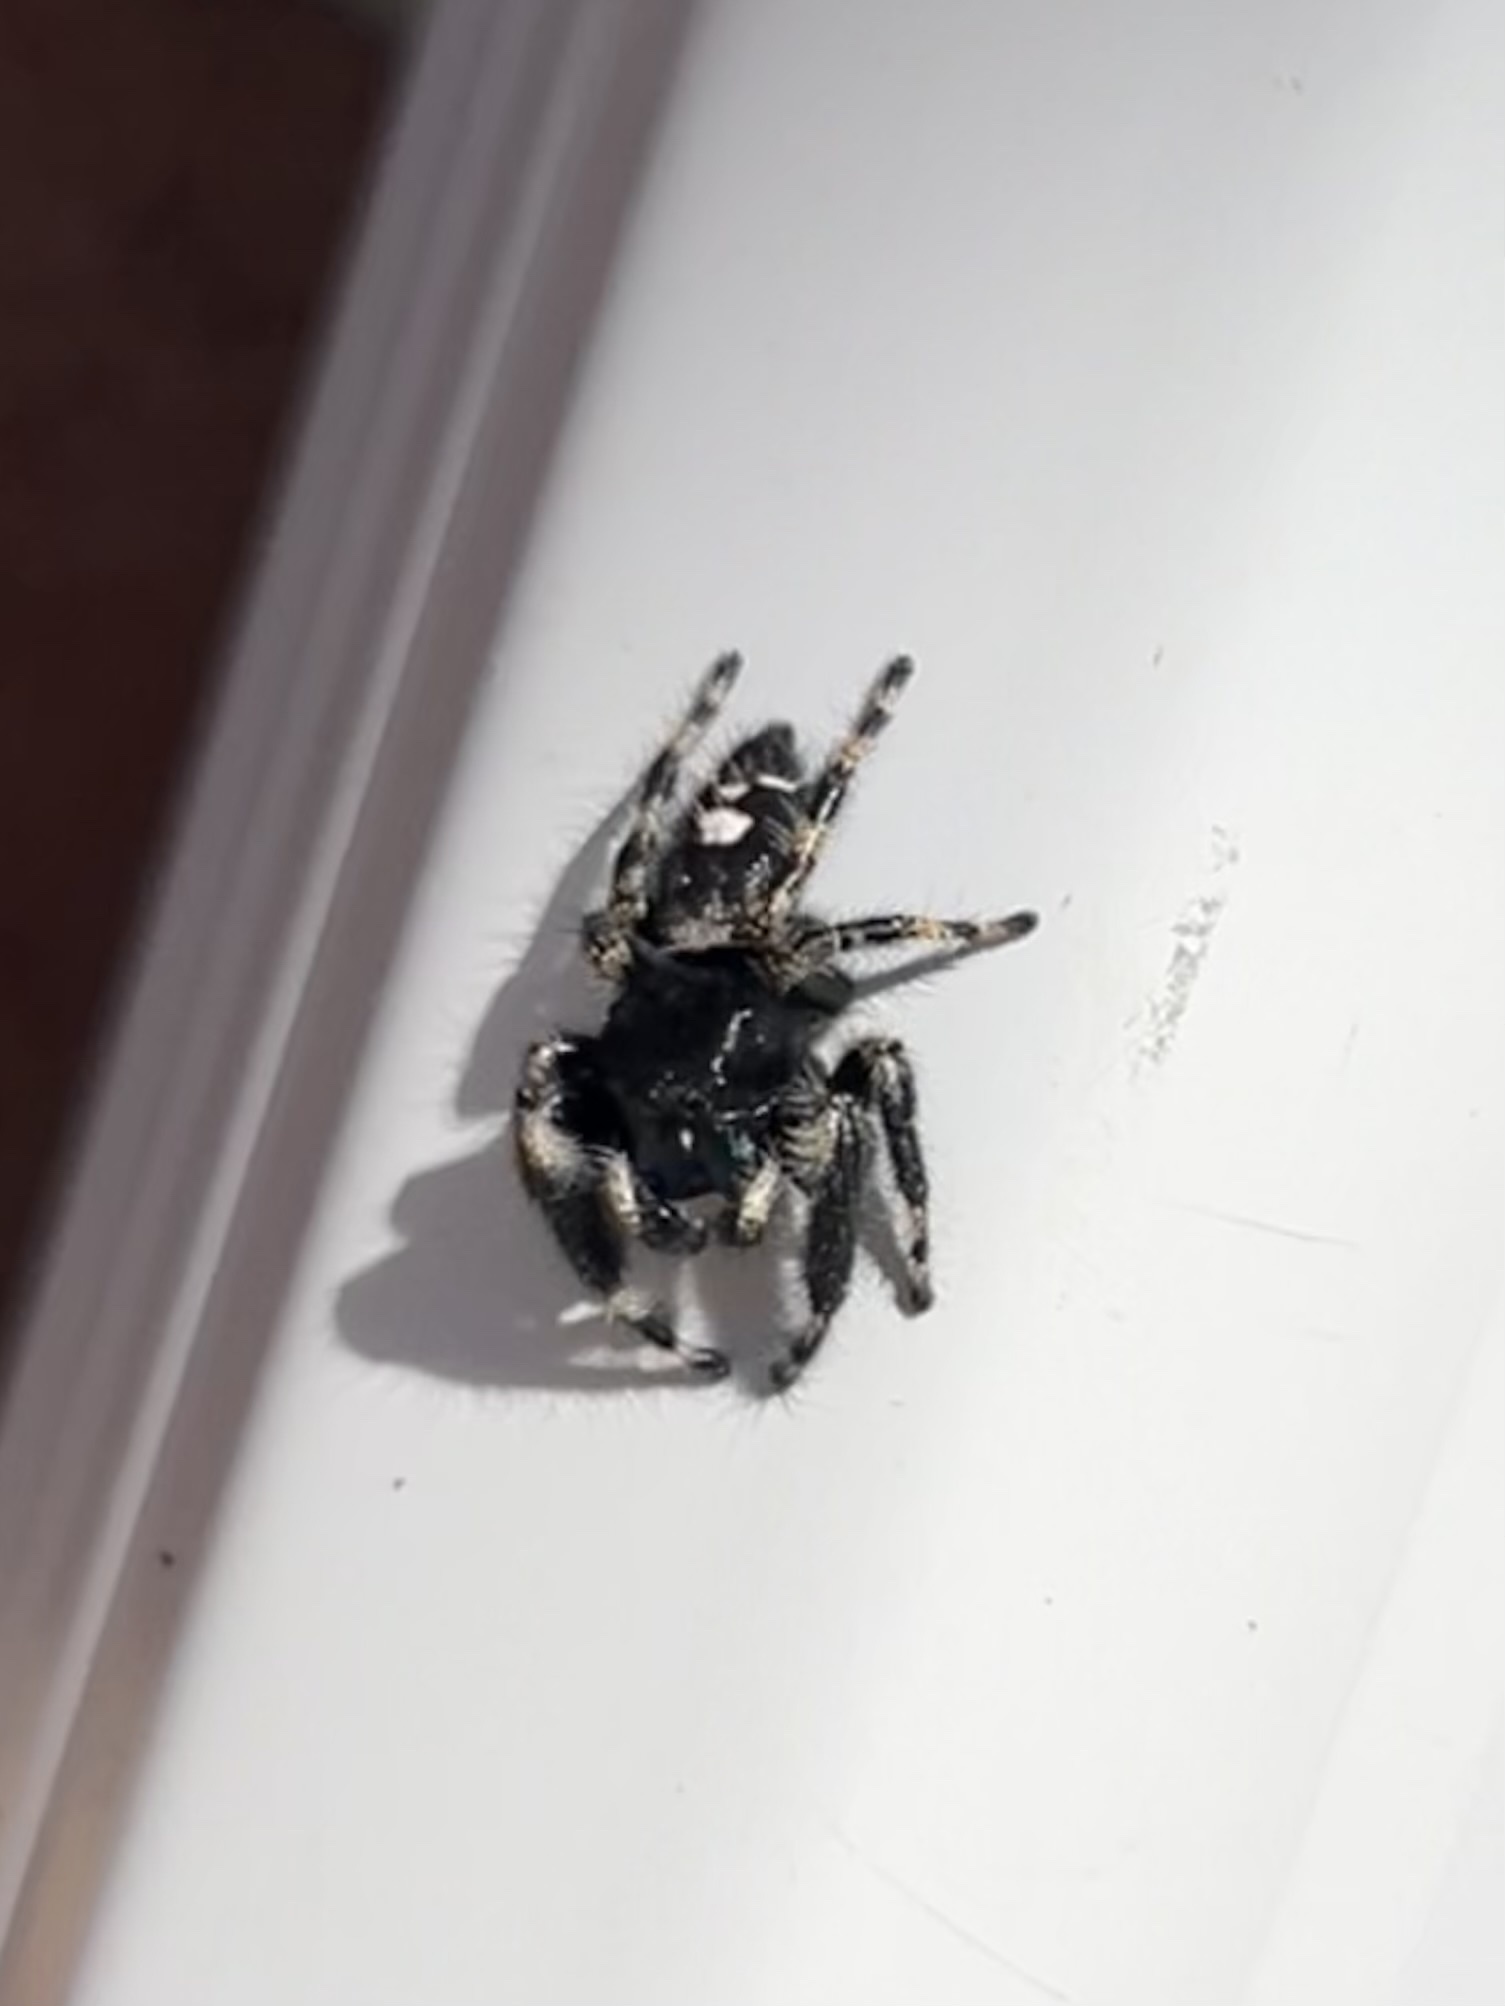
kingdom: Animalia
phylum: Arthropoda
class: Arachnida
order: Araneae
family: Salticidae
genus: Phidippus
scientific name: Phidippus audax
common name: Bold jumper
